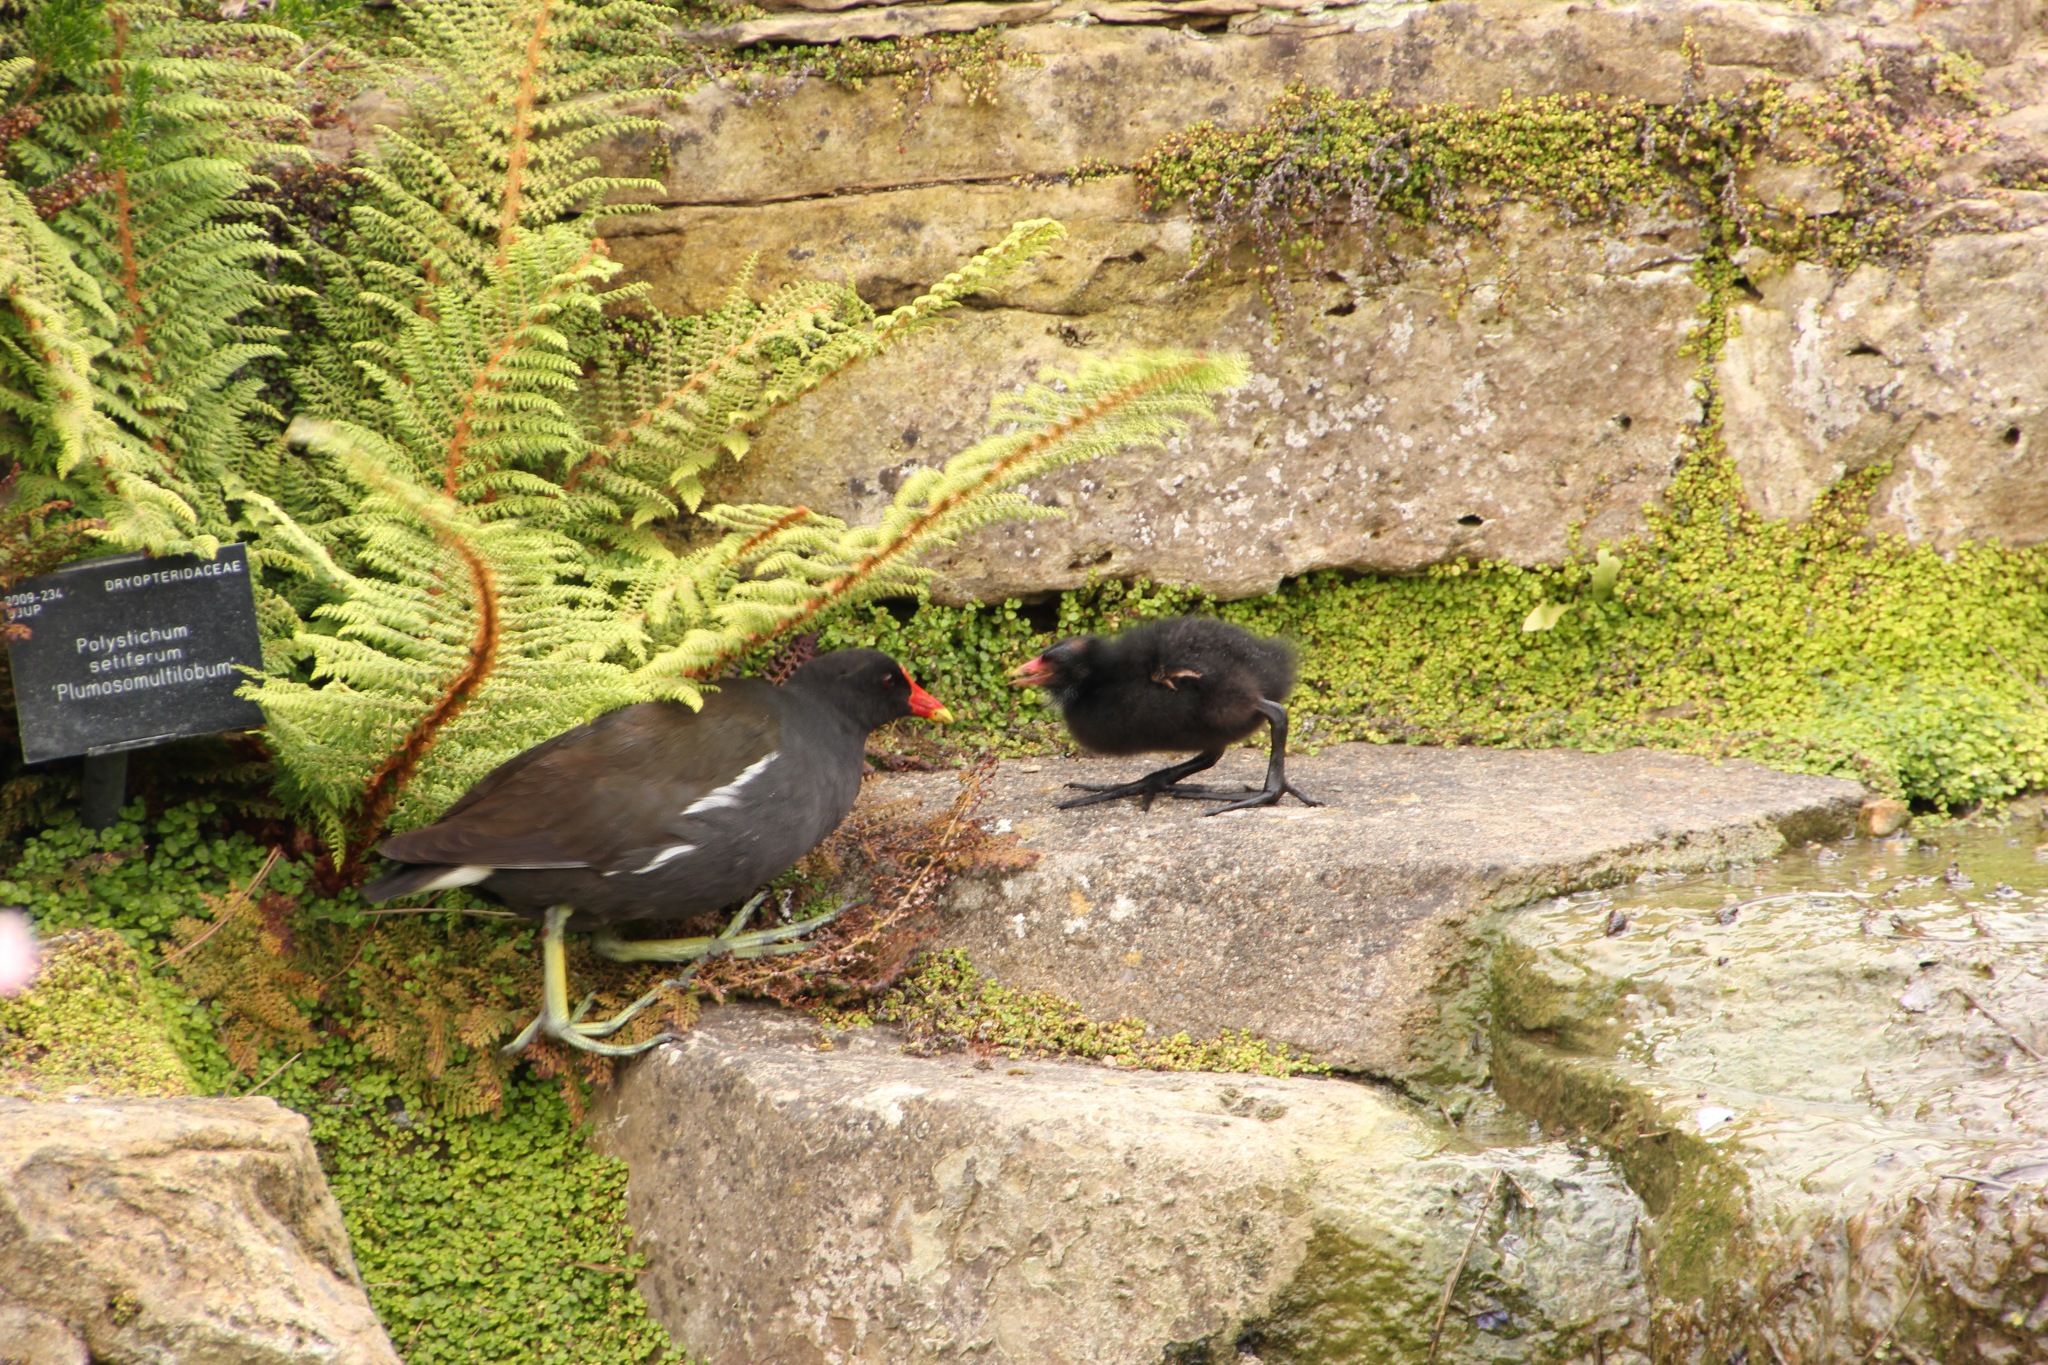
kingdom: Animalia
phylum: Chordata
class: Aves
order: Gruiformes
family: Rallidae
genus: Gallinula
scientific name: Gallinula chloropus
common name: Common moorhen
